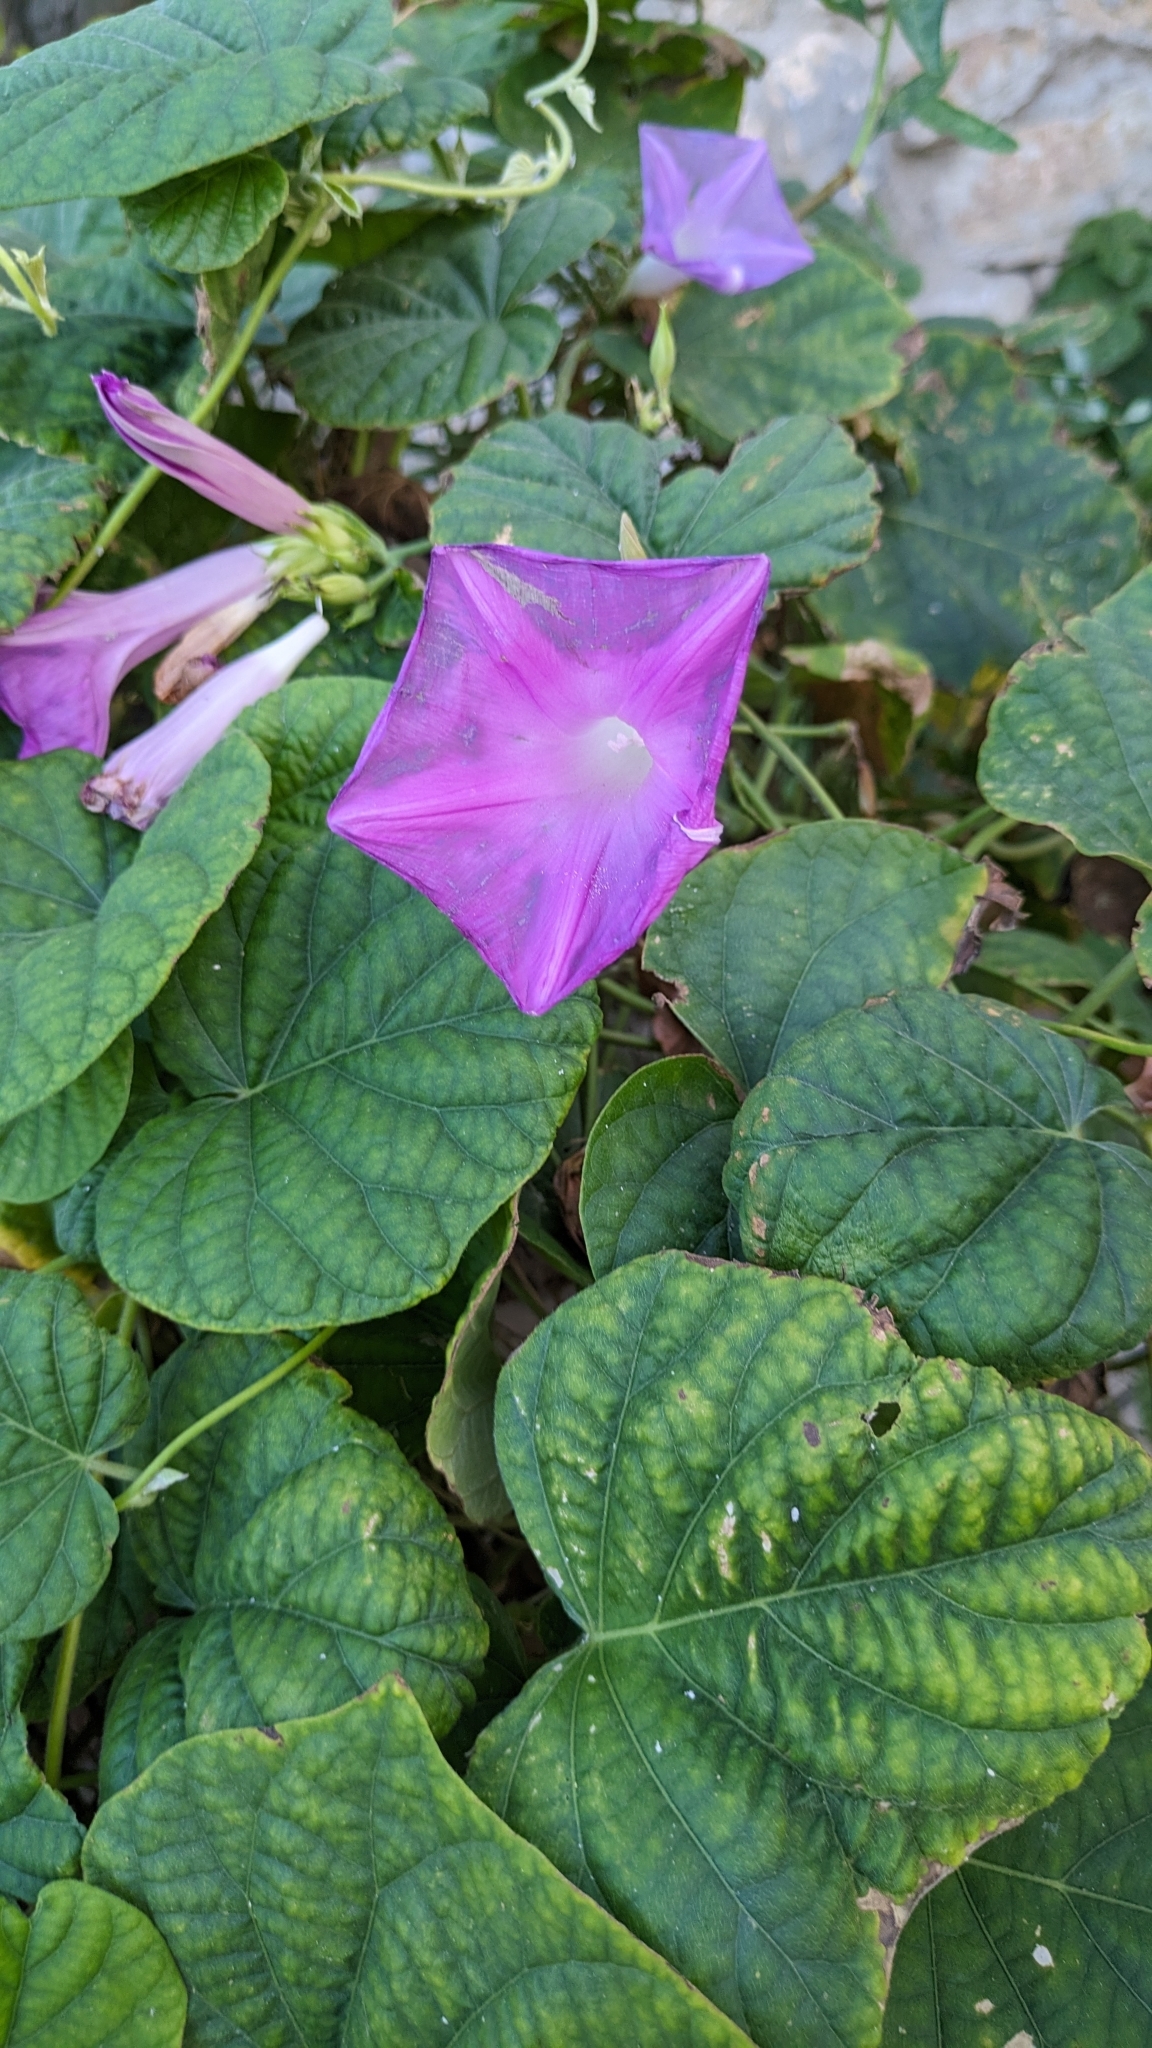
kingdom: Plantae
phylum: Tracheophyta
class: Magnoliopsida
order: Solanales
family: Convolvulaceae
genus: Ipomoea
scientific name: Ipomoea indica
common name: Blue dawnflower
